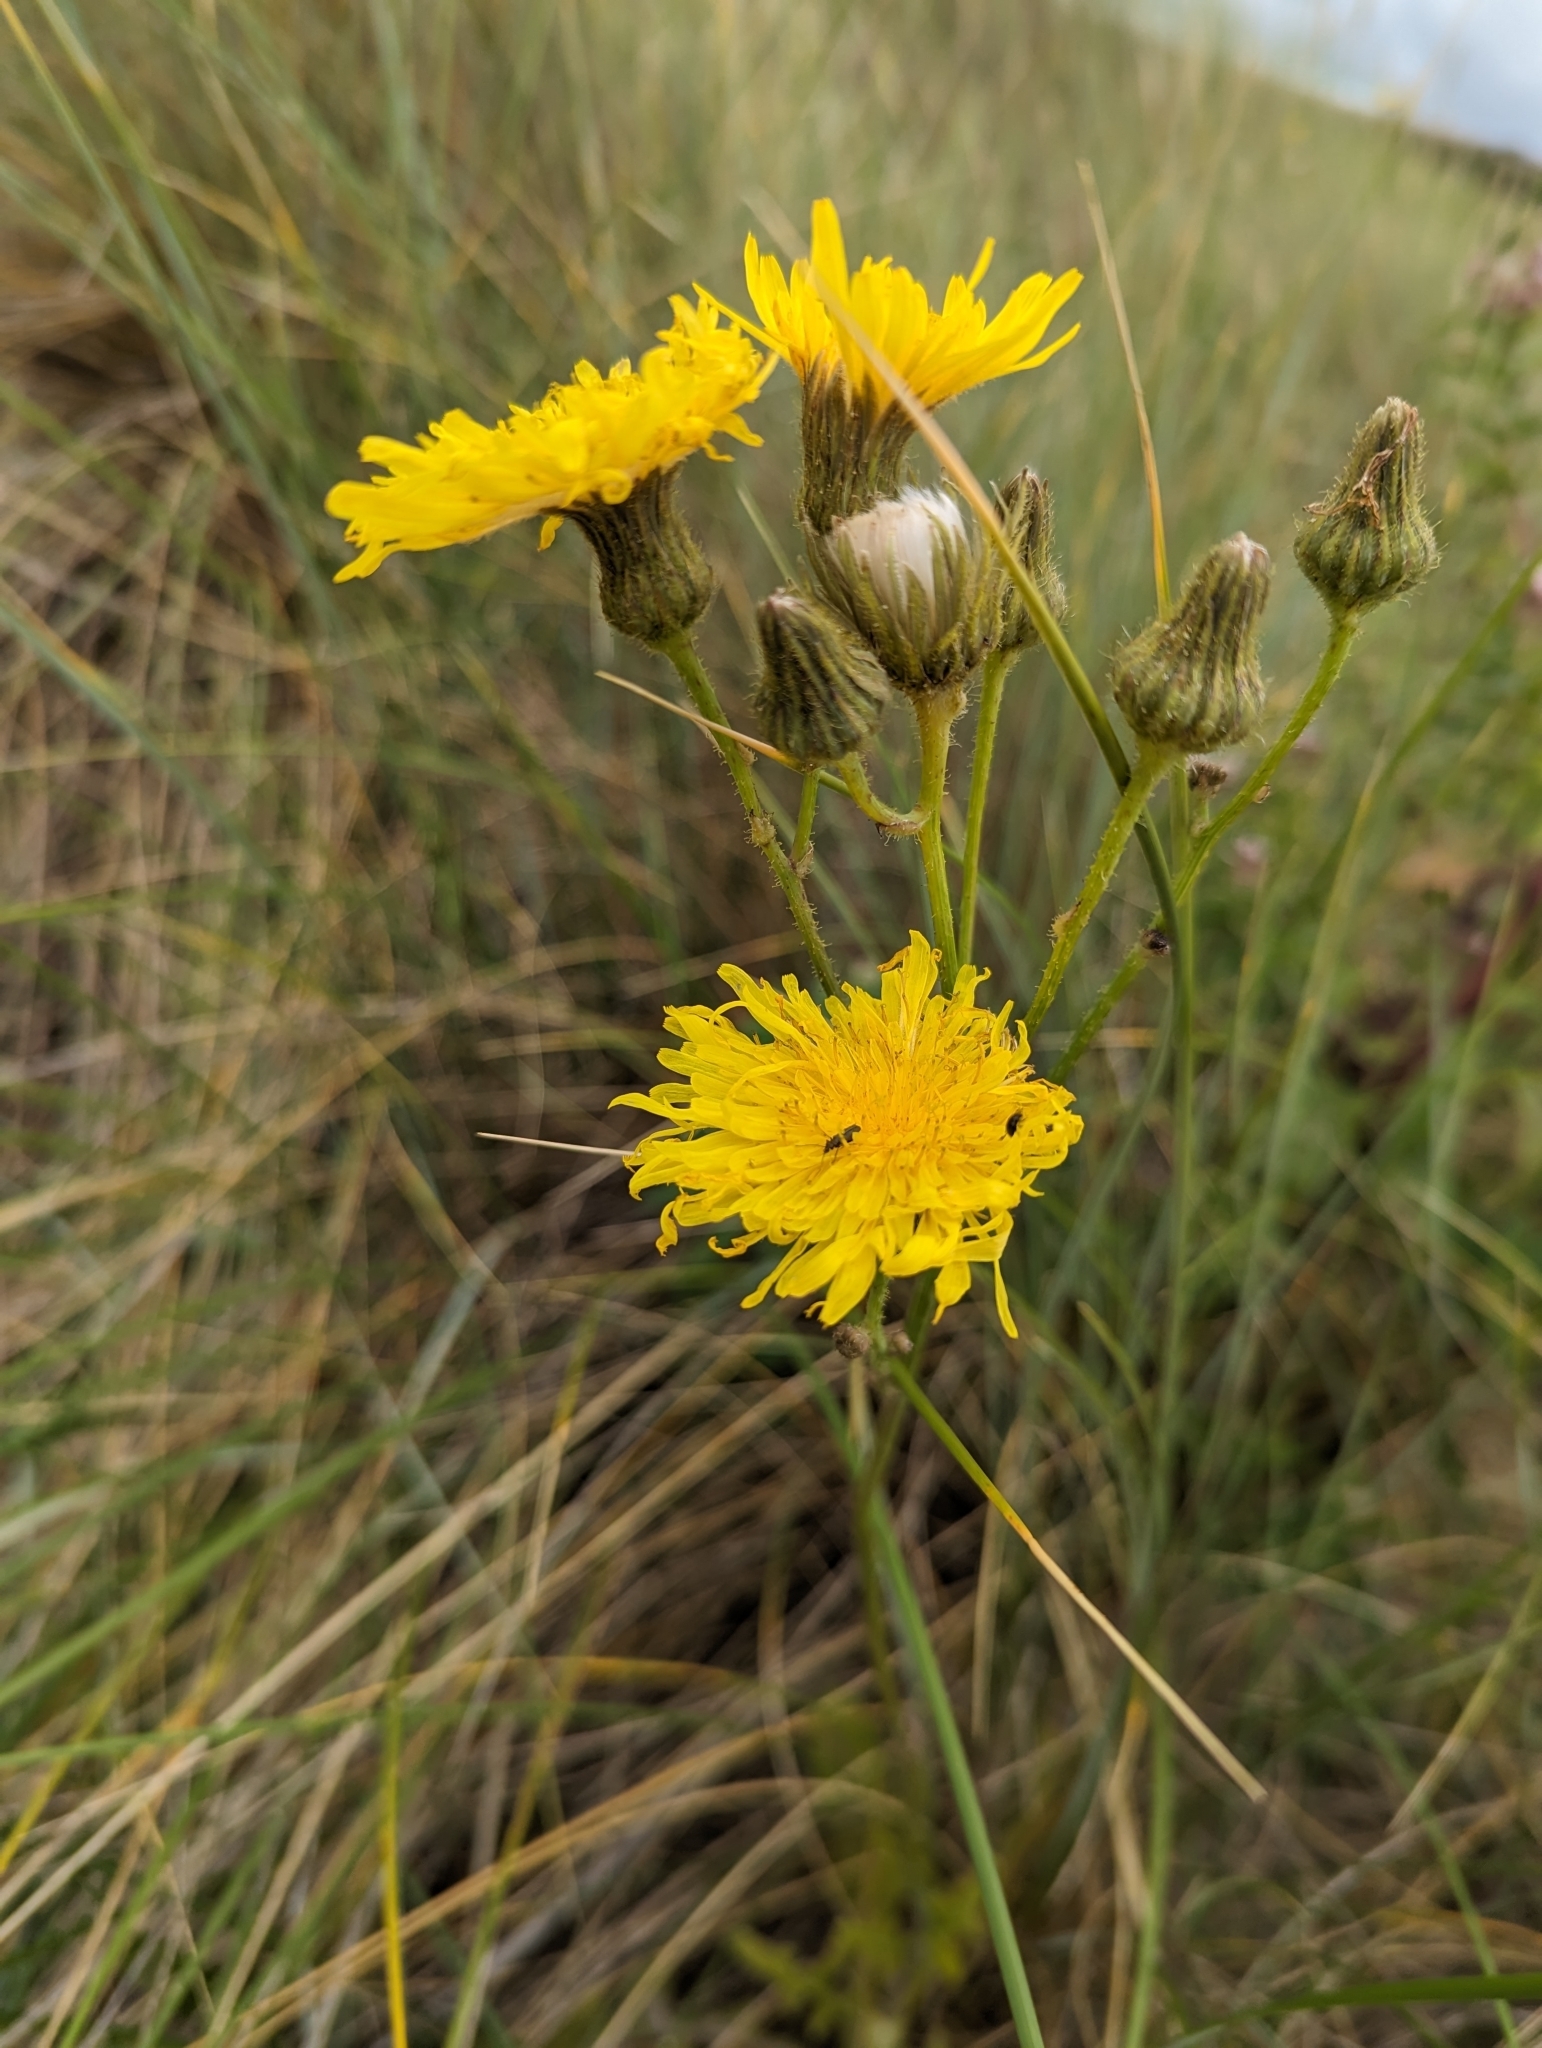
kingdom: Plantae
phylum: Tracheophyta
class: Magnoliopsida
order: Asterales
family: Asteraceae
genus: Sonchus
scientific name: Sonchus arvensis
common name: Perennial sow-thistle
